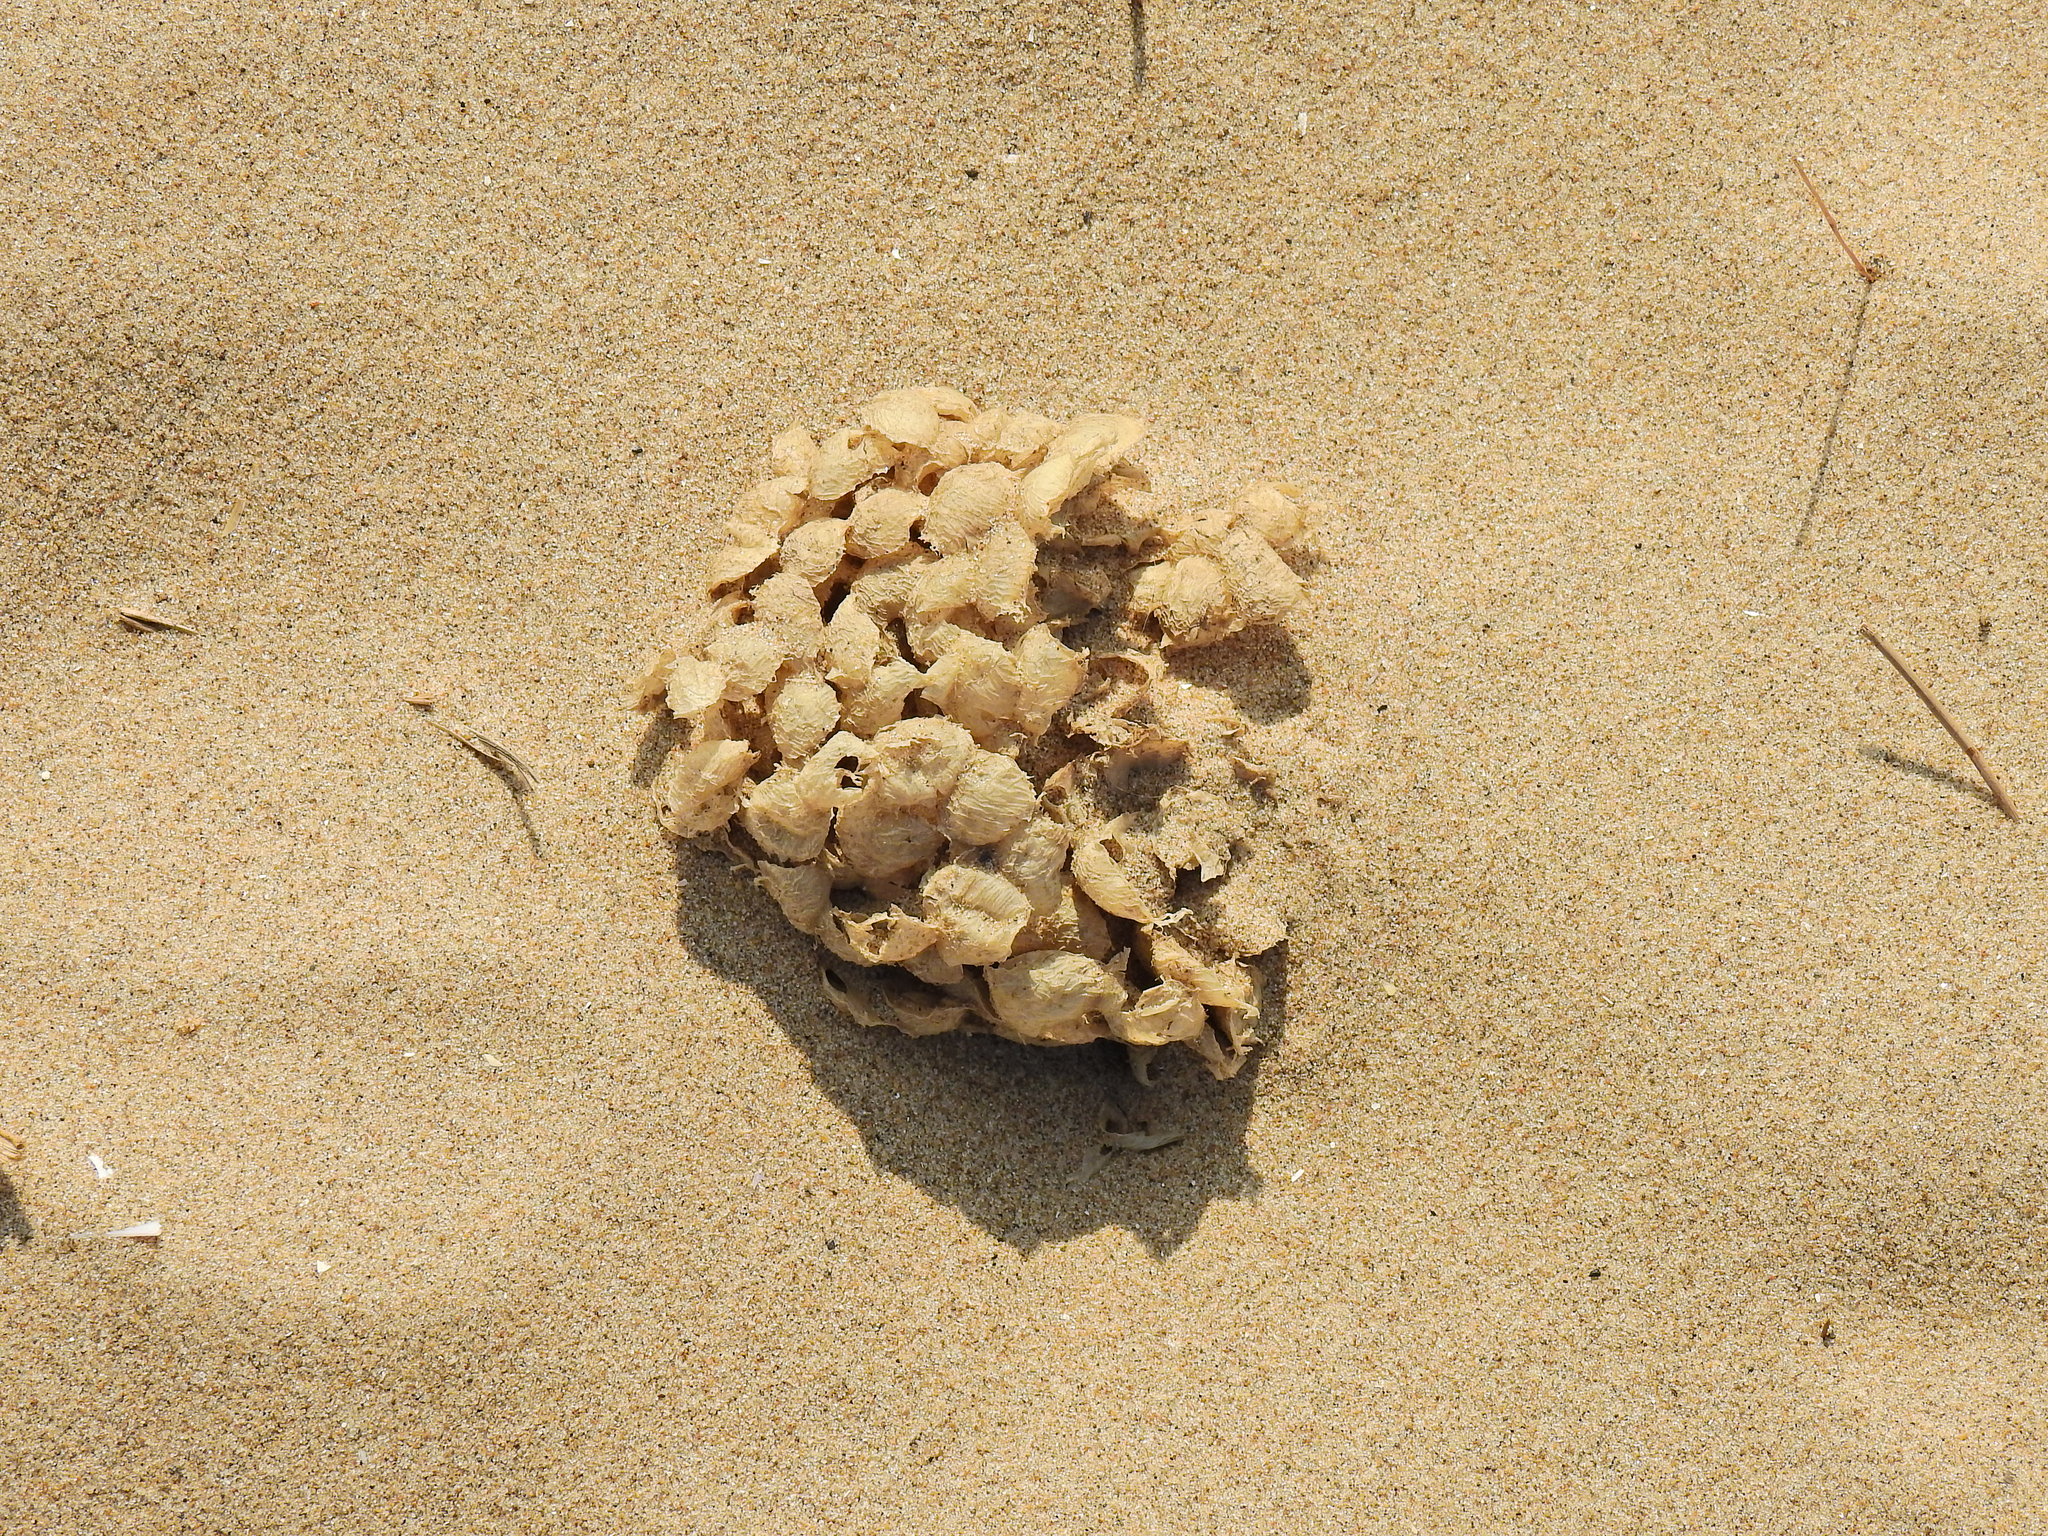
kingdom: Animalia
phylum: Mollusca
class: Gastropoda
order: Neogastropoda
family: Buccinidae
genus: Buccinum
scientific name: Buccinum undatum
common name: Common whelk
